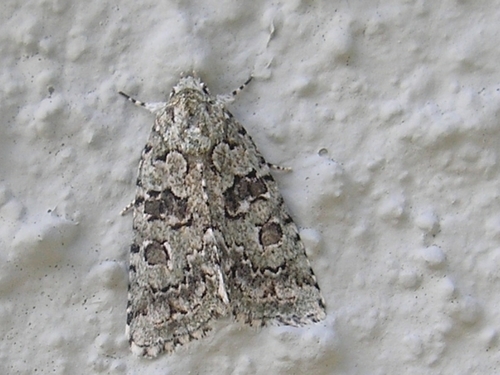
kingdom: Animalia
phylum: Arthropoda
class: Insecta
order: Lepidoptera
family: Noctuidae
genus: Nyctobrya
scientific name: Nyctobrya muralis
